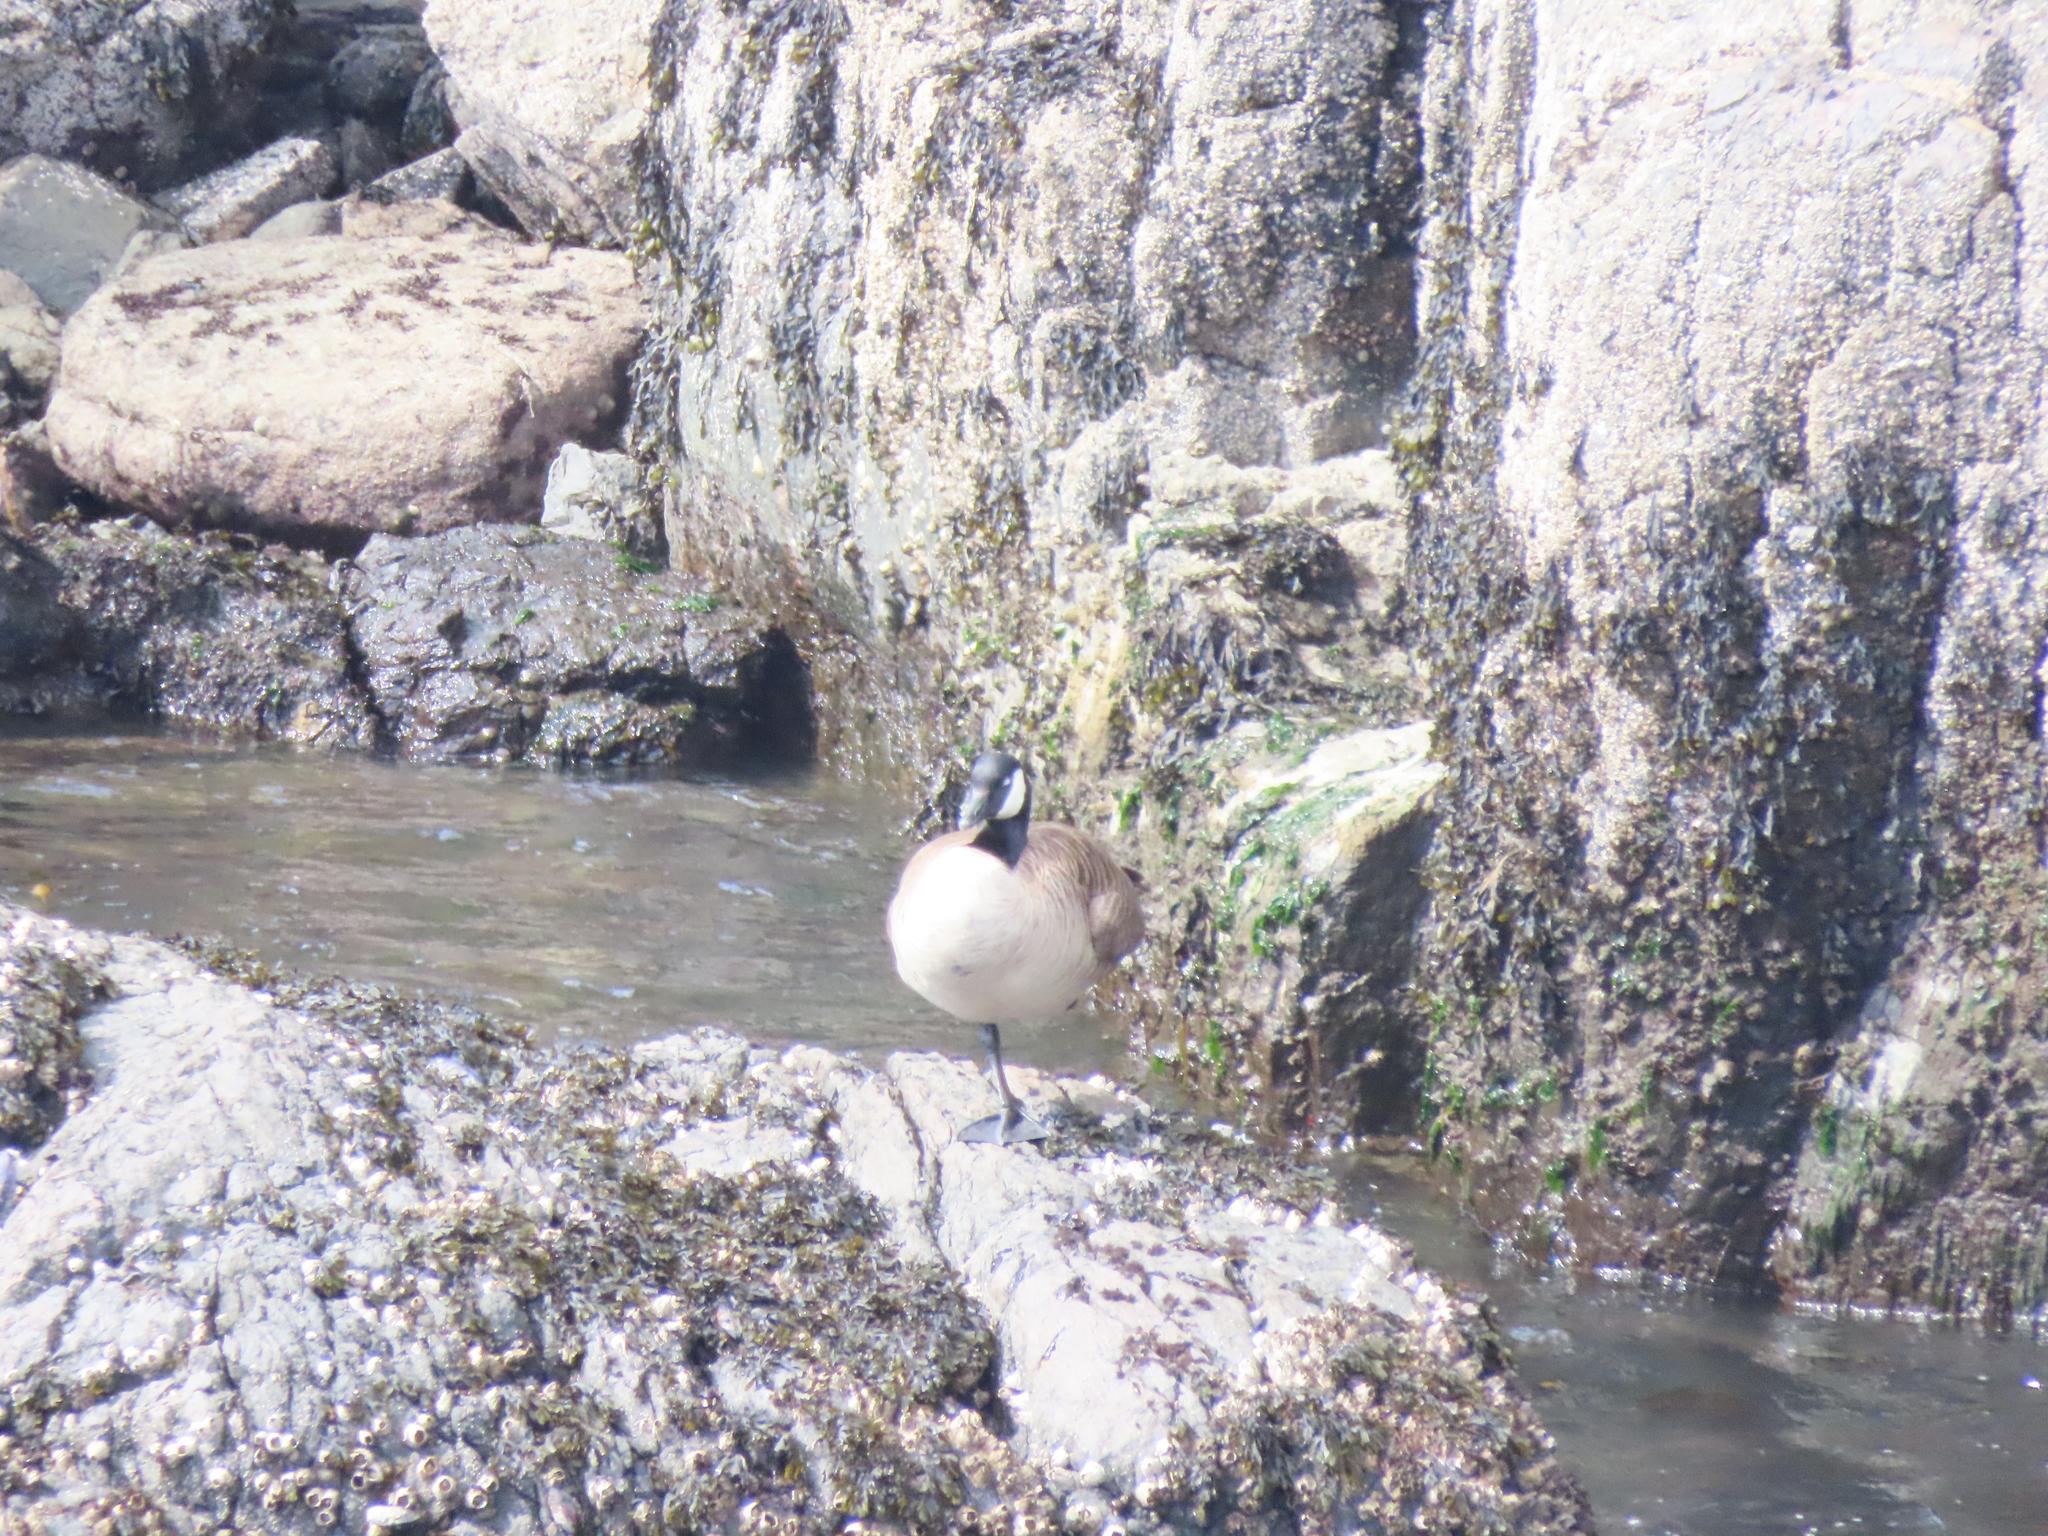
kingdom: Animalia
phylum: Chordata
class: Aves
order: Anseriformes
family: Anatidae
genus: Branta
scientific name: Branta canadensis
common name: Canada goose
